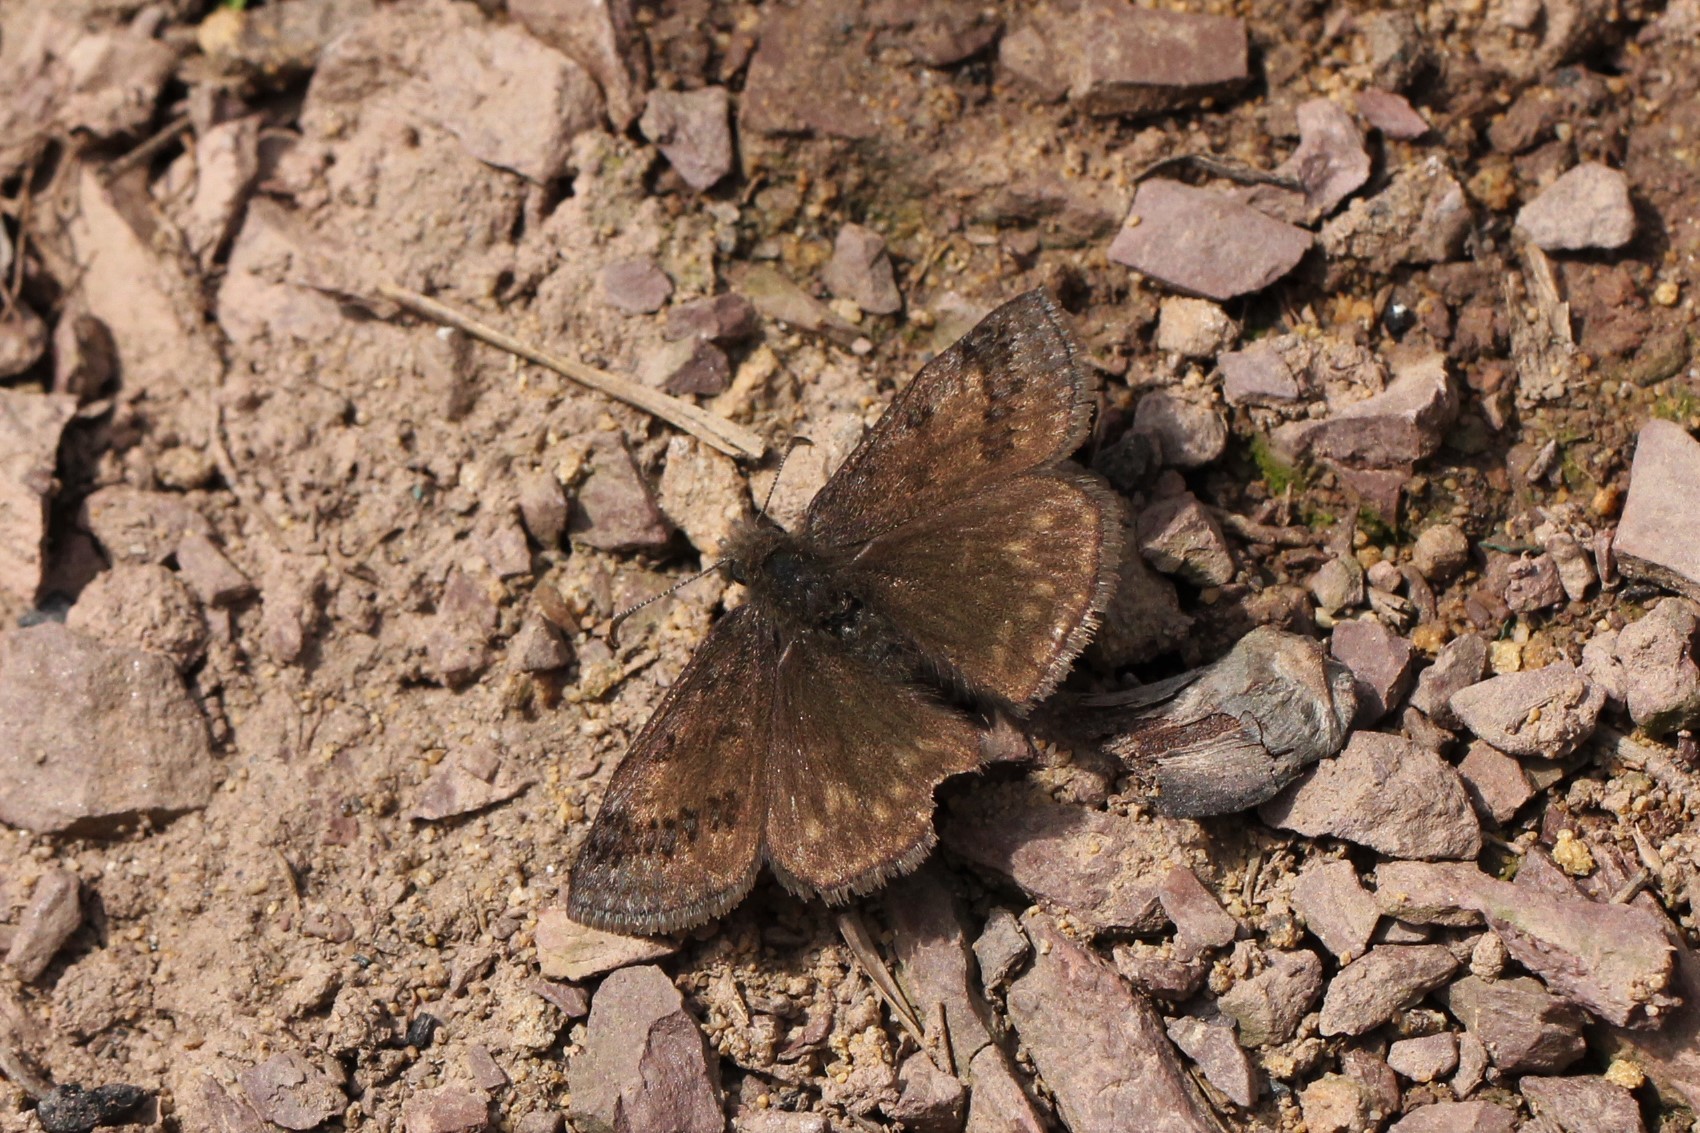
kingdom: Animalia
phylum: Arthropoda
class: Insecta
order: Lepidoptera
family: Hesperiidae
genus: Erynnis
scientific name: Erynnis brizo
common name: Sleepy duskywing
